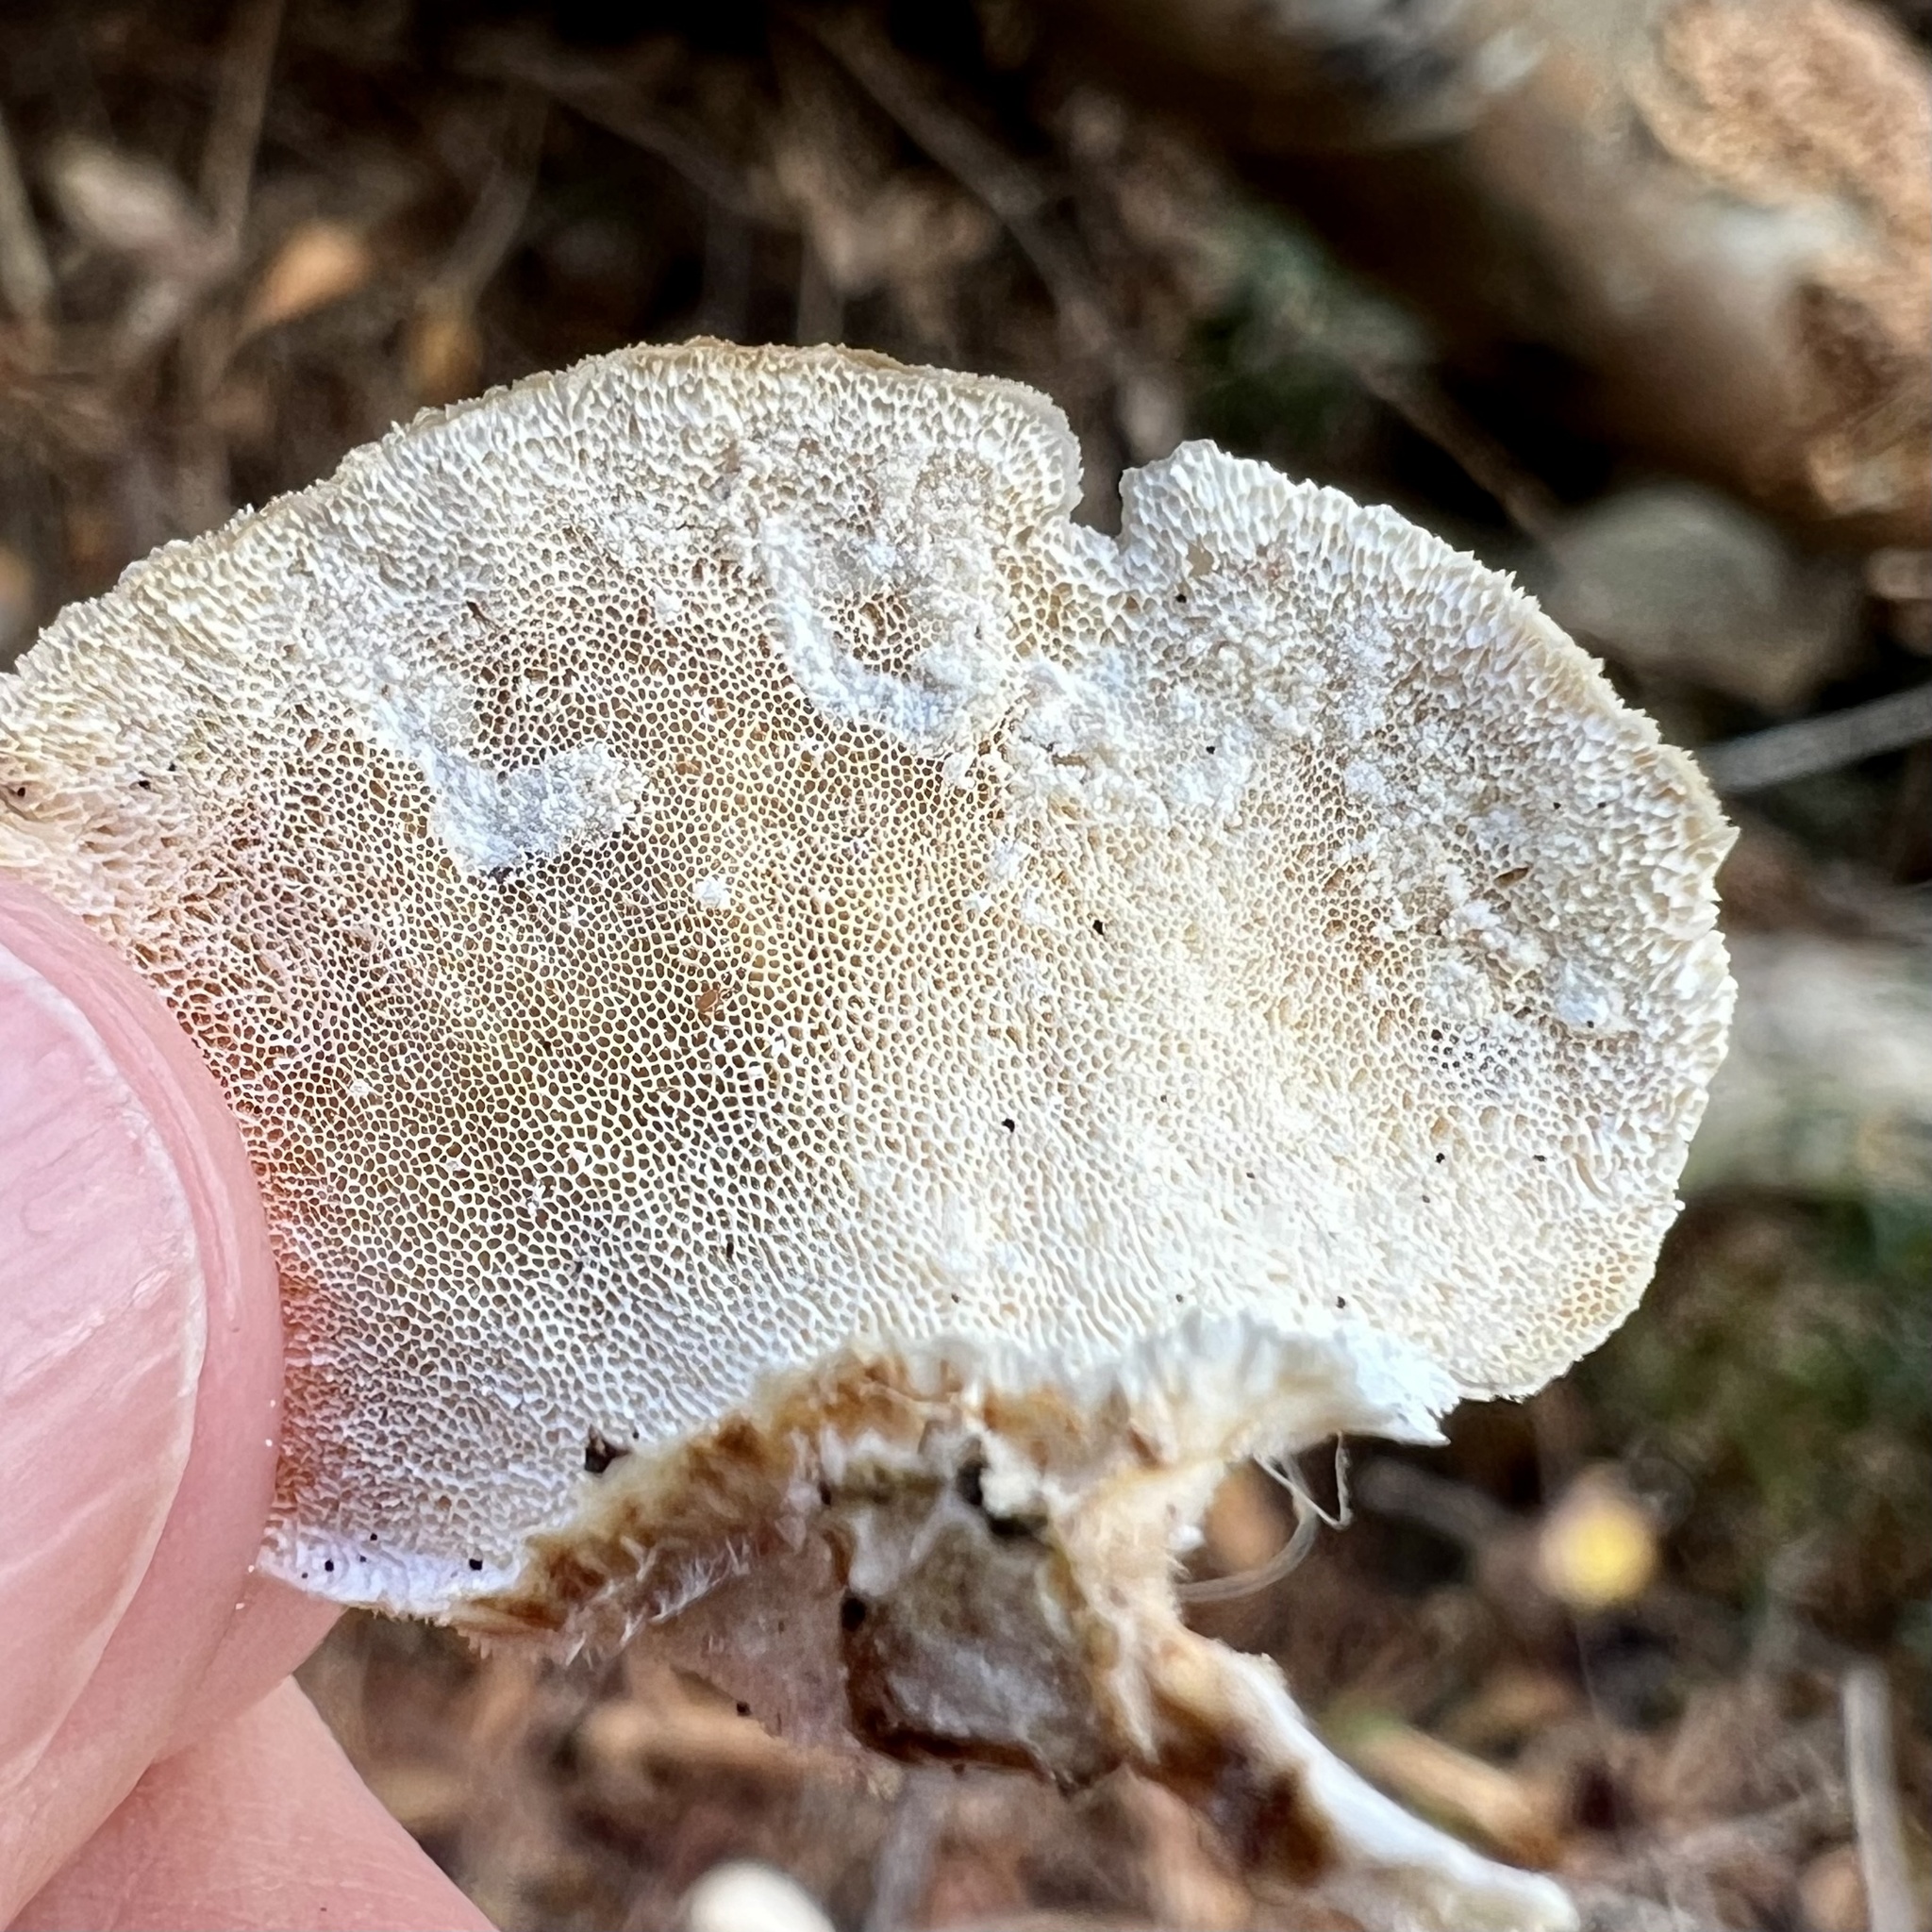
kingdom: Fungi
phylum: Basidiomycota
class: Agaricomycetes
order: Polyporales
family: Polyporaceae
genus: Trametes
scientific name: Trametes versicolor
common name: Turkeytail
